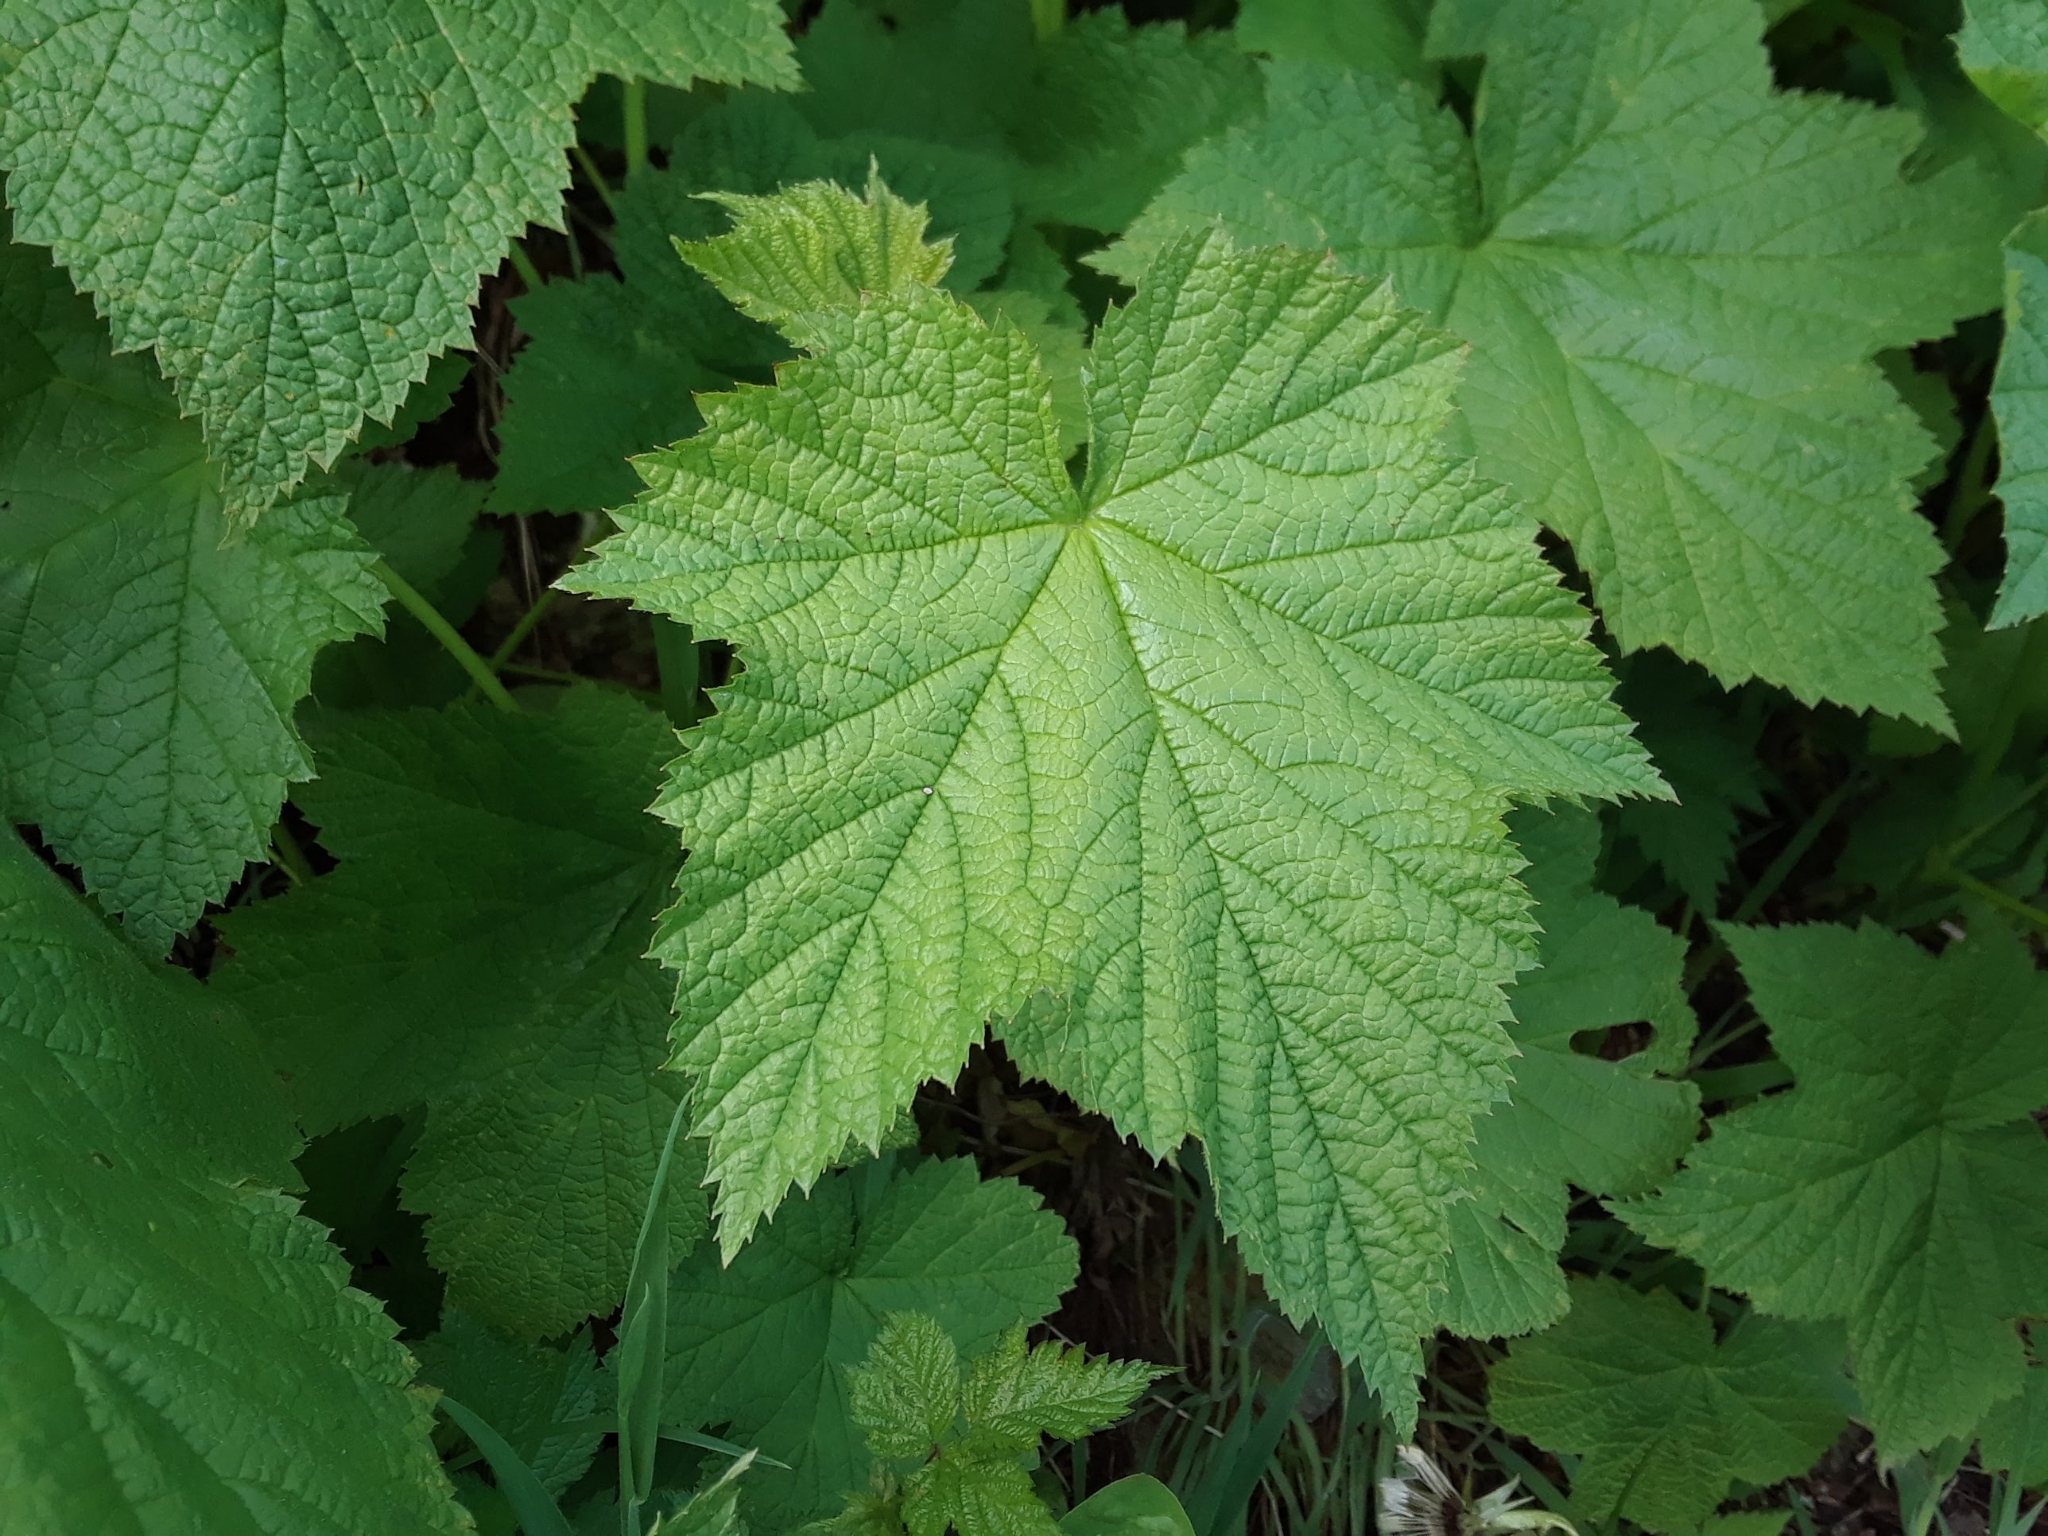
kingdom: Plantae
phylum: Tracheophyta
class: Magnoliopsida
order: Rosales
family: Rosaceae
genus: Rubus
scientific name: Rubus parviflorus
